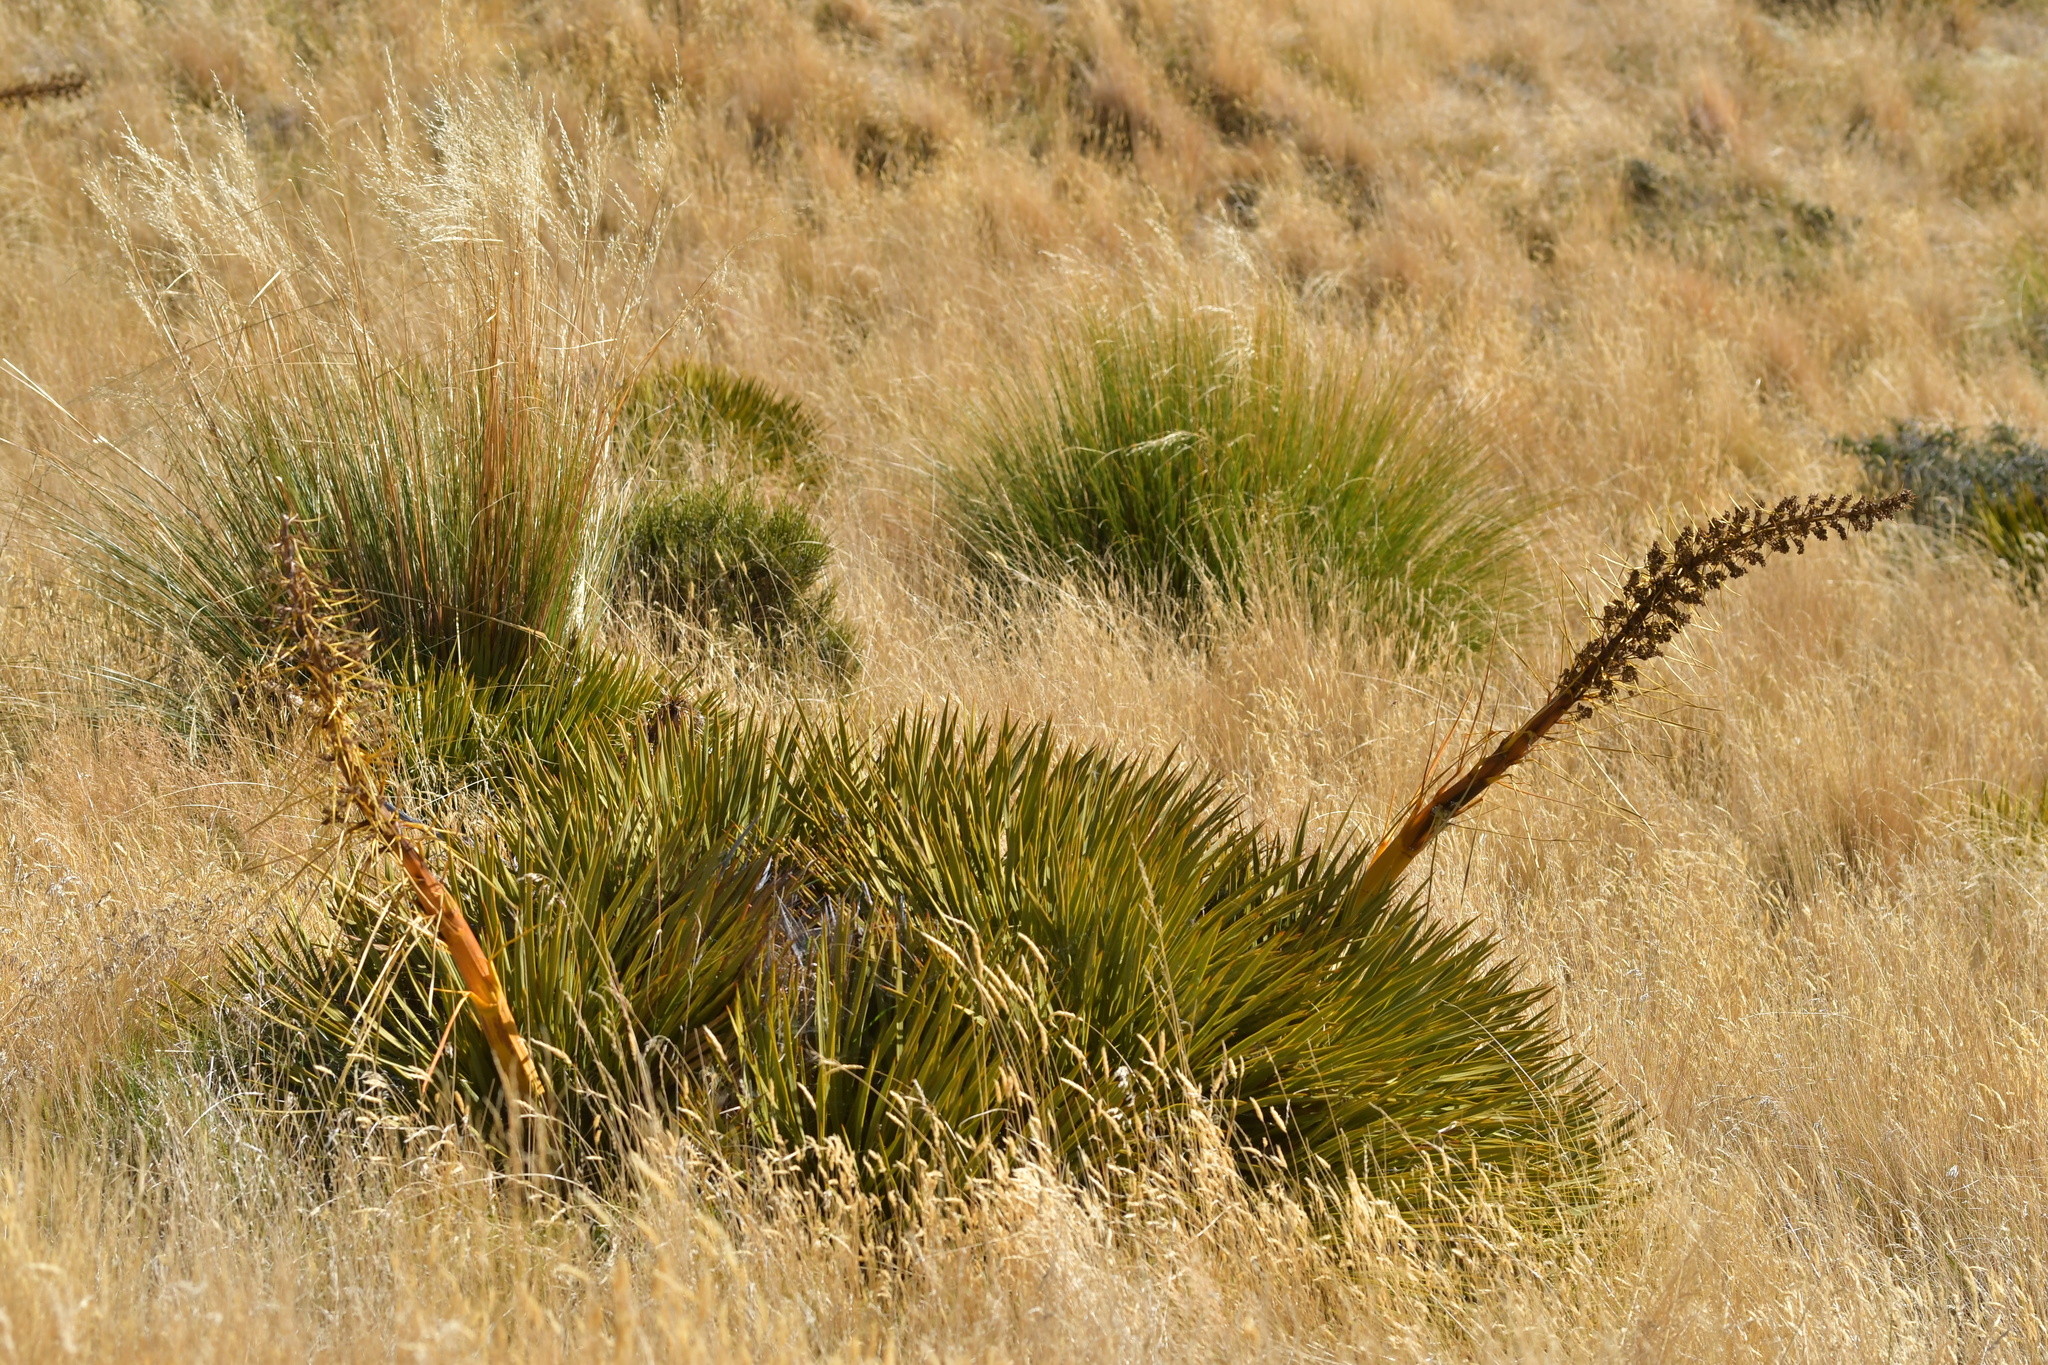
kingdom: Plantae
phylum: Tracheophyta
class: Magnoliopsida
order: Apiales
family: Apiaceae
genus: Aciphylla
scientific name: Aciphylla aurea
